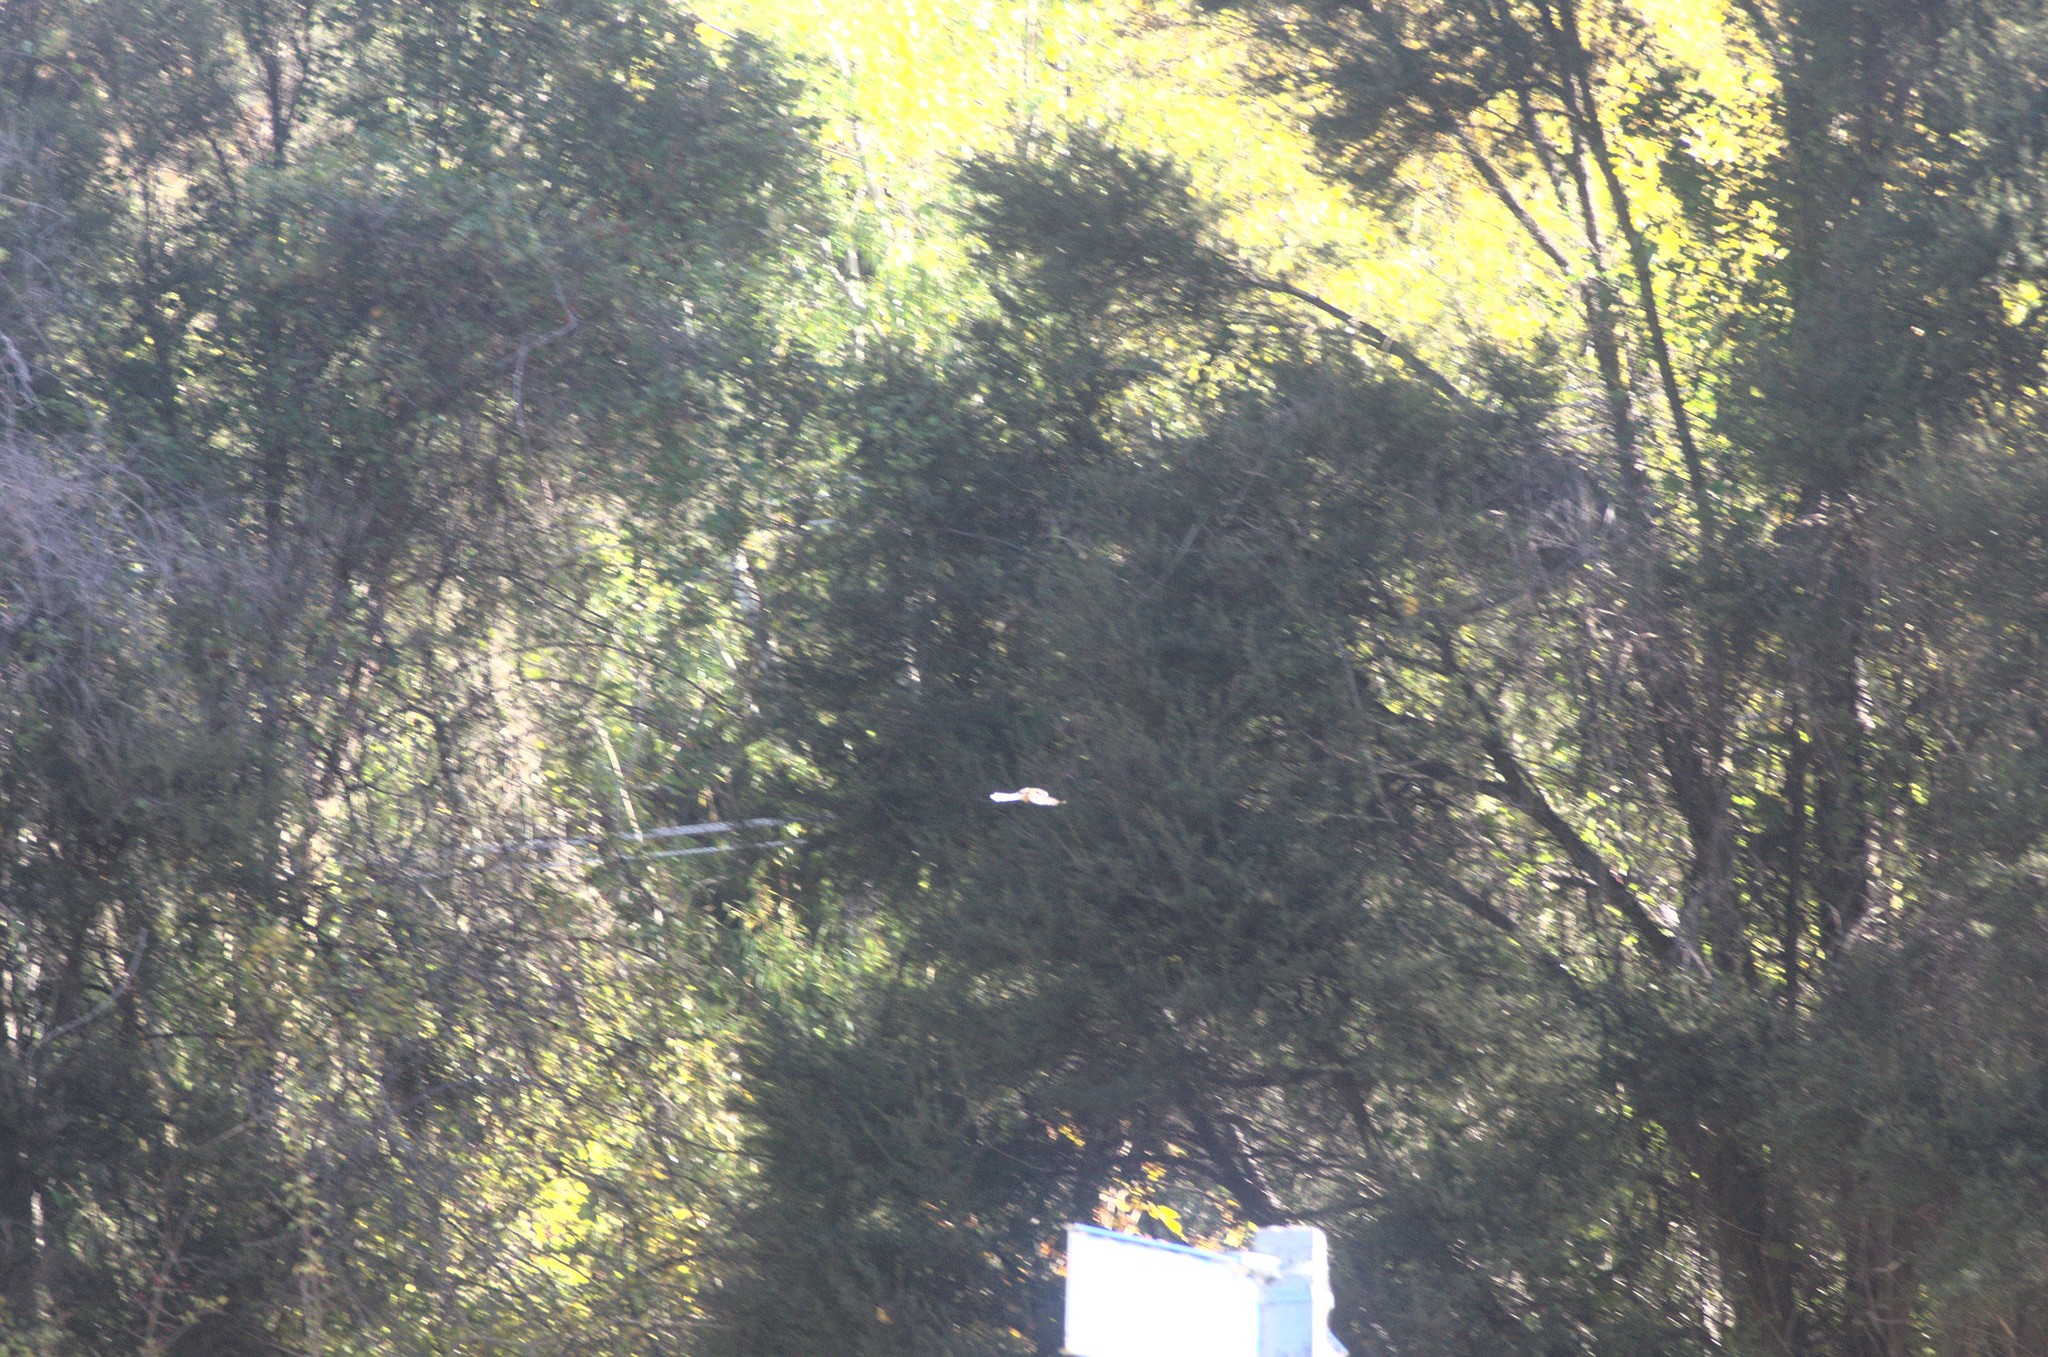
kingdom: Animalia
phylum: Chordata
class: Aves
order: Passeriformes
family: Rhipiduridae
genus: Rhipidura
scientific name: Rhipidura fuliginosa
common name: New zealand fantail
